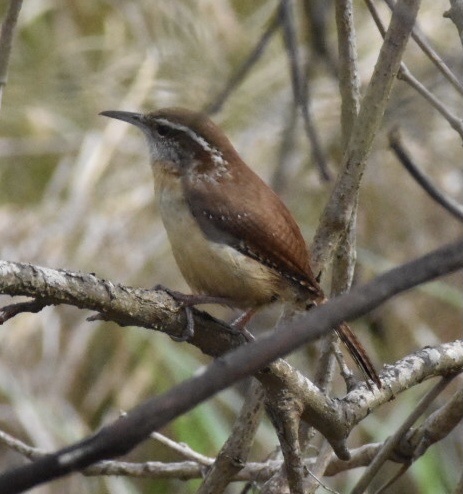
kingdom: Animalia
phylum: Chordata
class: Aves
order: Passeriformes
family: Troglodytidae
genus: Thryothorus
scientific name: Thryothorus ludovicianus
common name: Carolina wren
